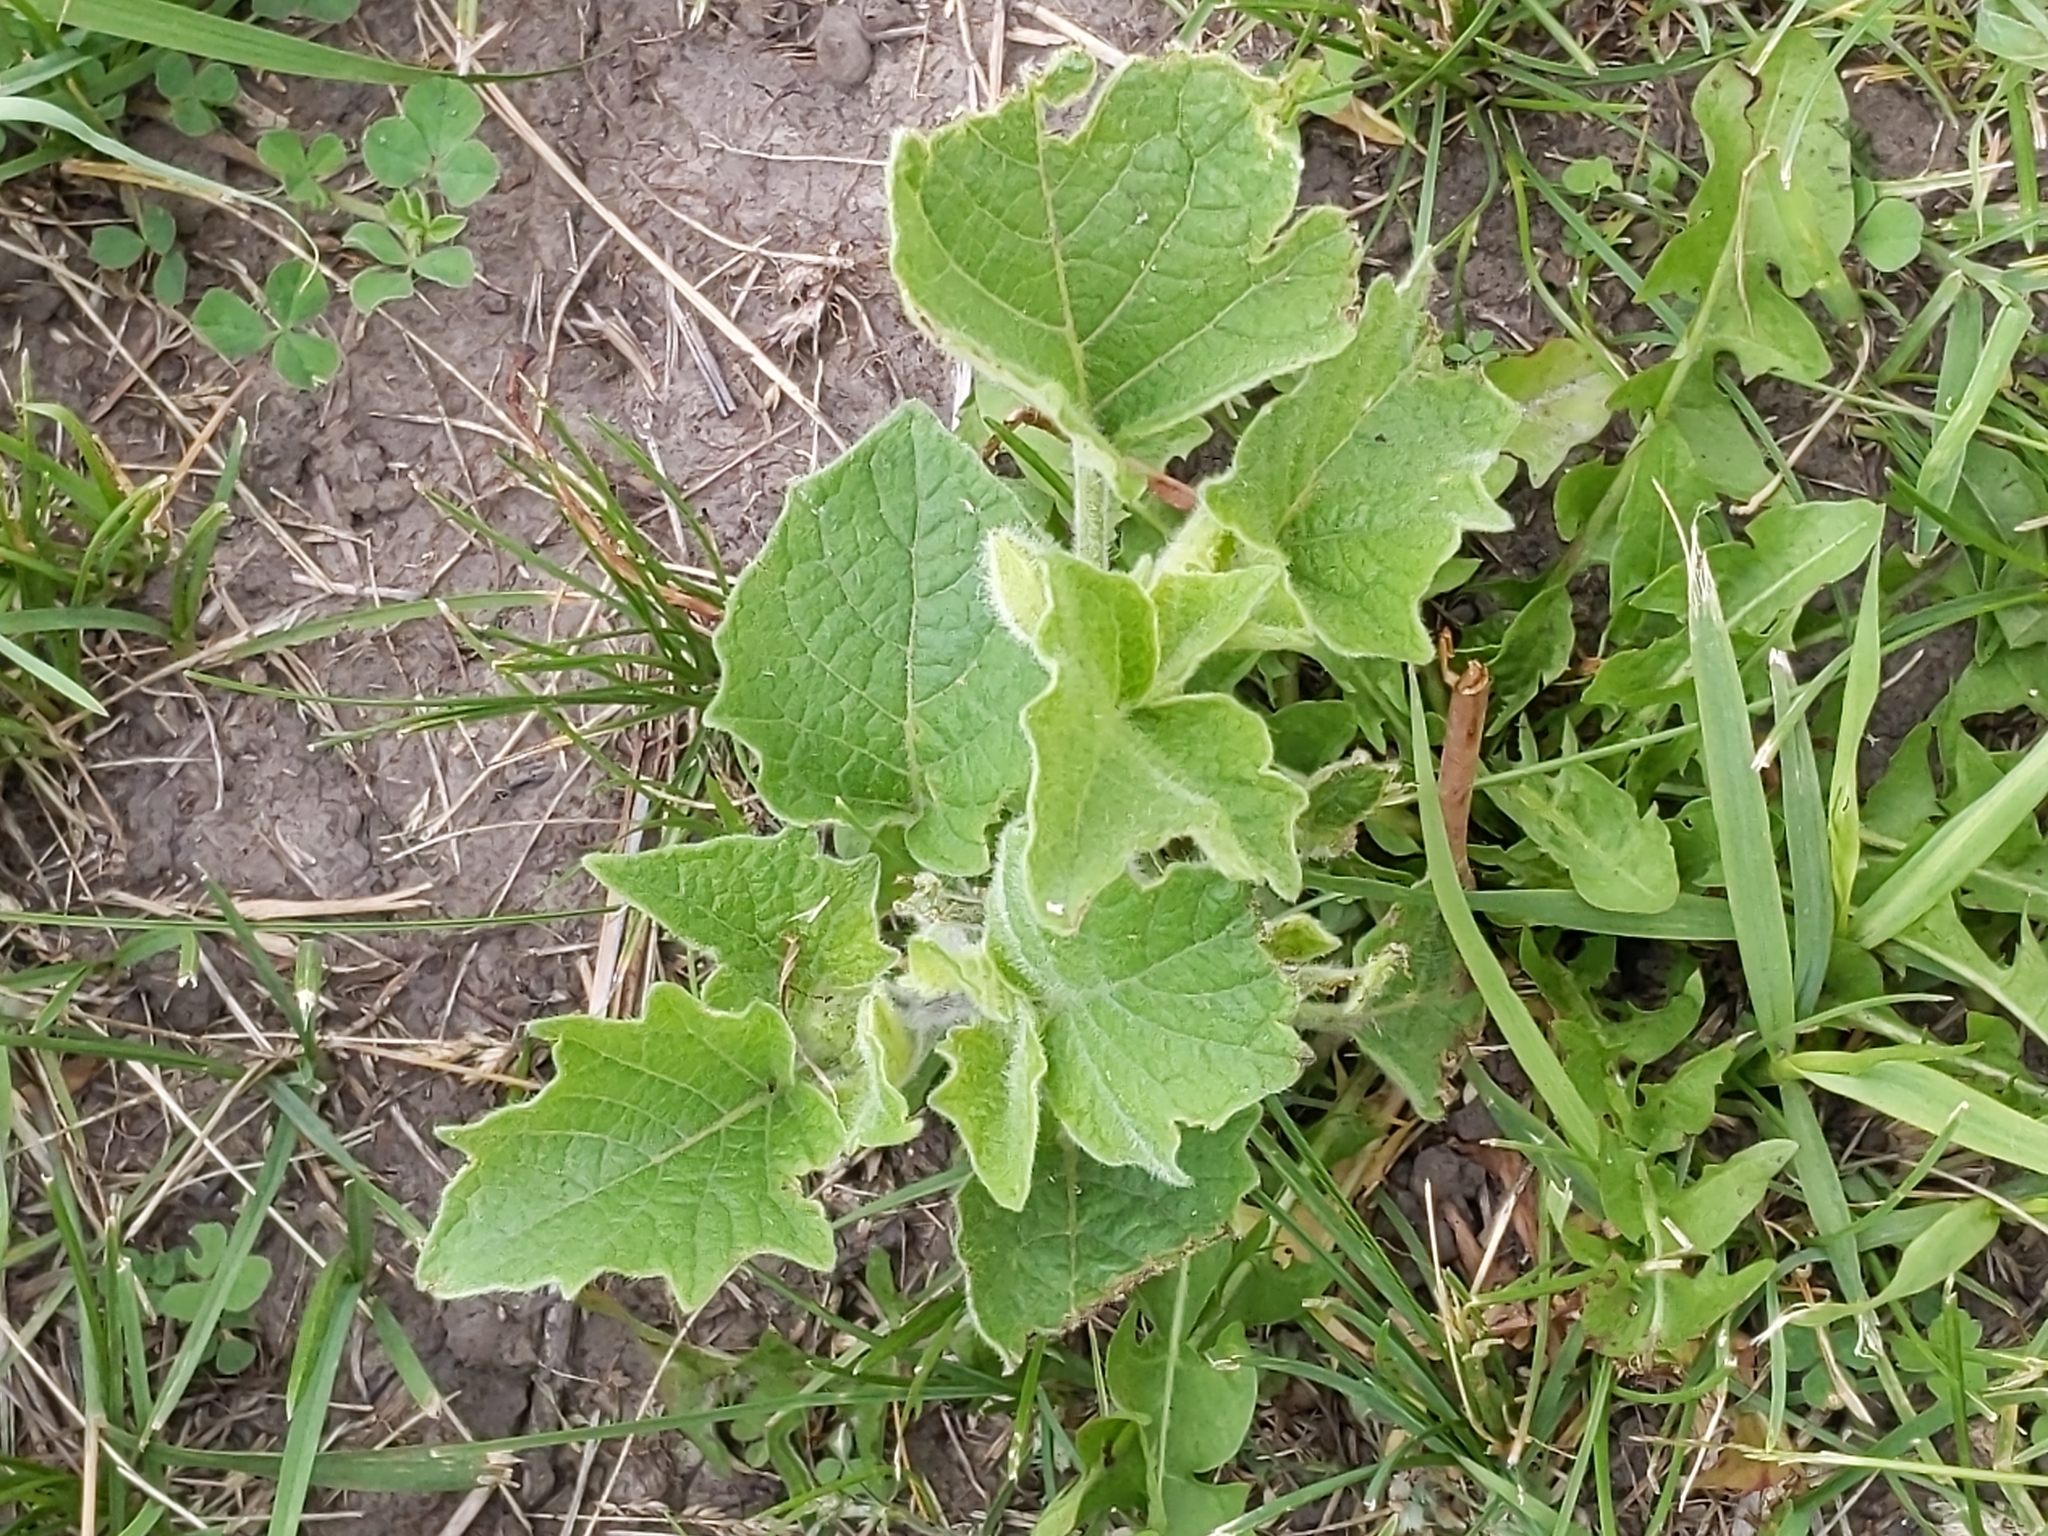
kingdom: Plantae
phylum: Tracheophyta
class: Magnoliopsida
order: Solanales
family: Solanaceae
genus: Physalis
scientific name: Physalis heterophylla
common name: Clammy ground-cherry
